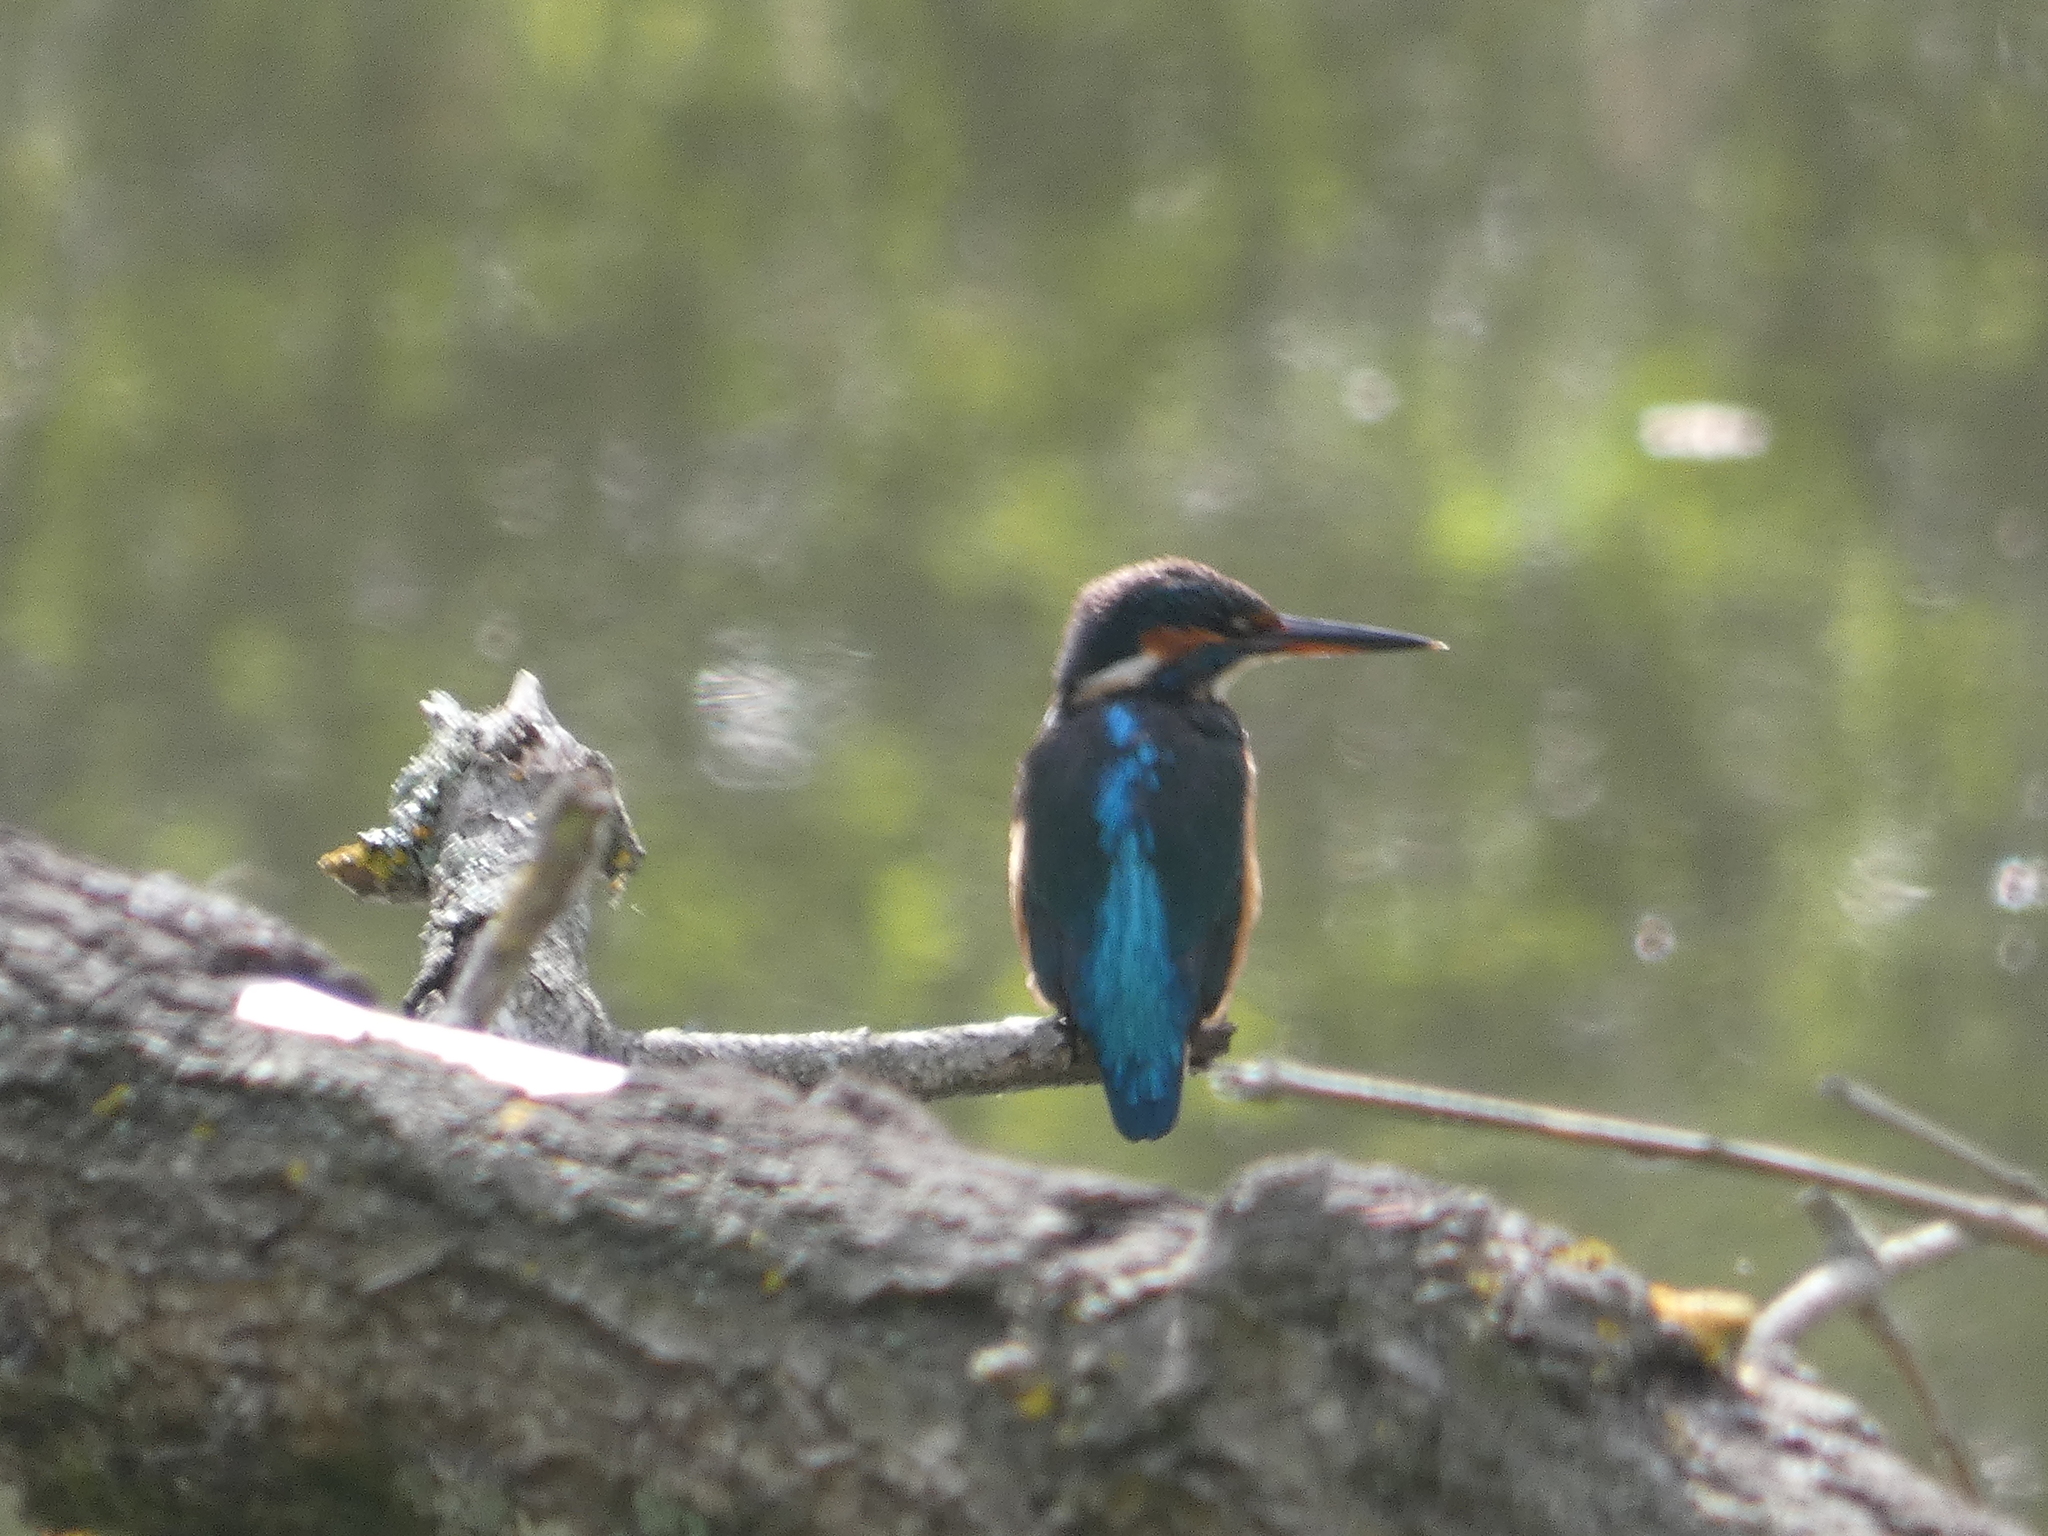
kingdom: Animalia
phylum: Chordata
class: Aves
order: Coraciiformes
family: Alcedinidae
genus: Alcedo
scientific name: Alcedo atthis
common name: Common kingfisher
